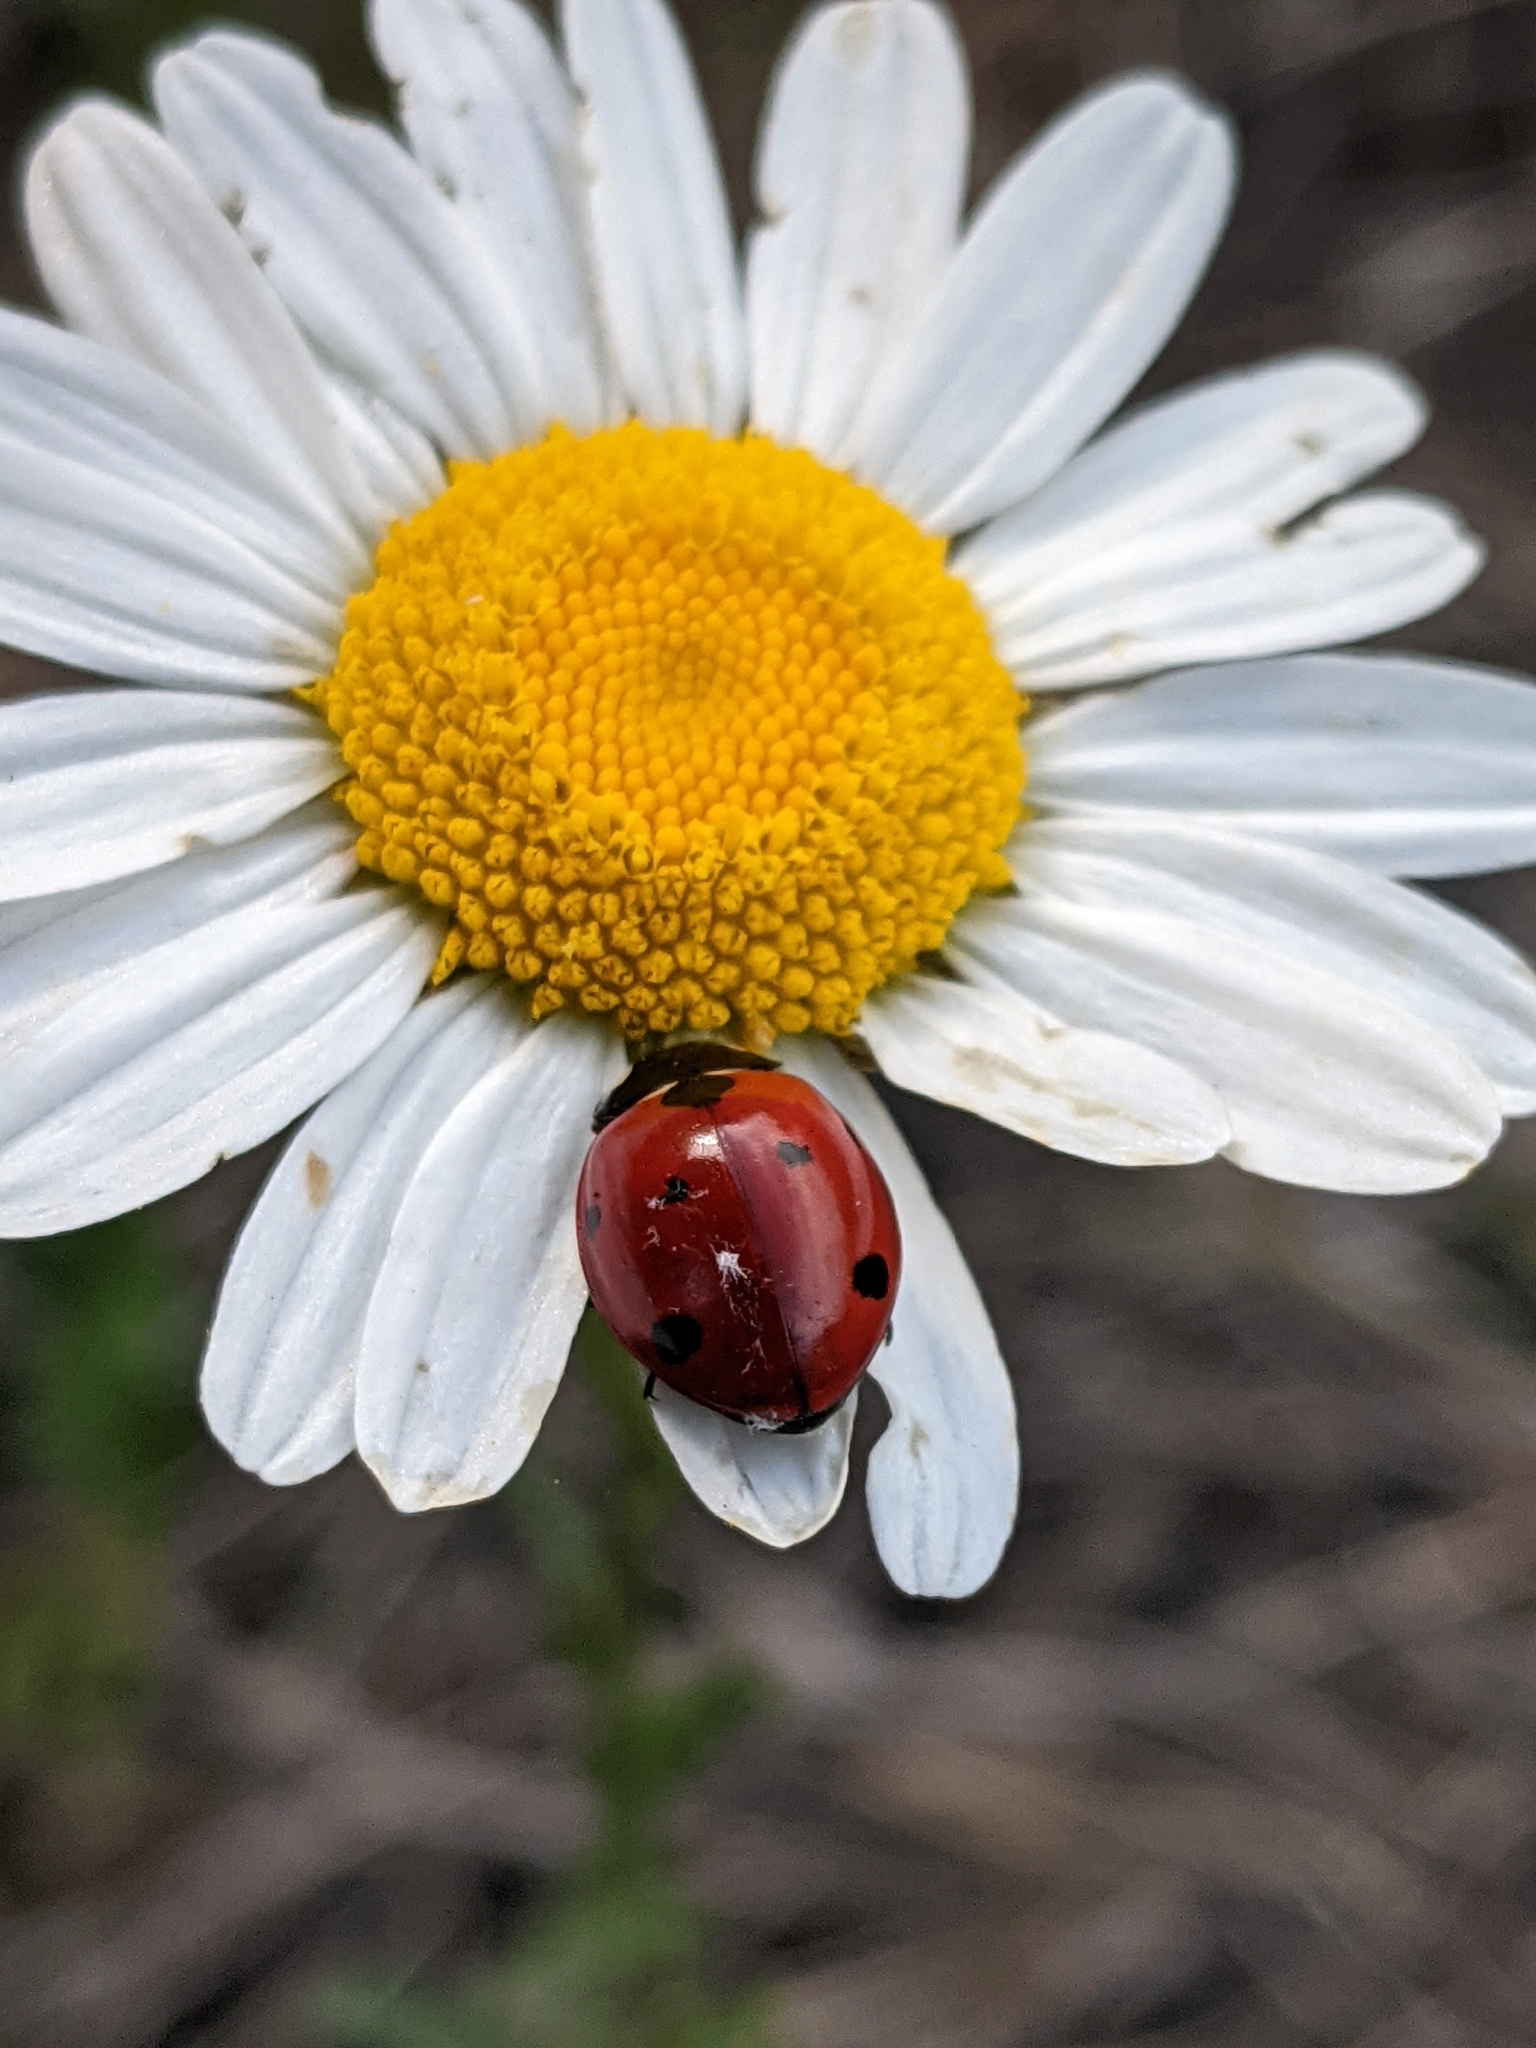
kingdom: Animalia
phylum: Arthropoda
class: Insecta
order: Coleoptera
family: Coccinellidae
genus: Coccinella
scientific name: Coccinella septempunctata
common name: Sevenspotted lady beetle
